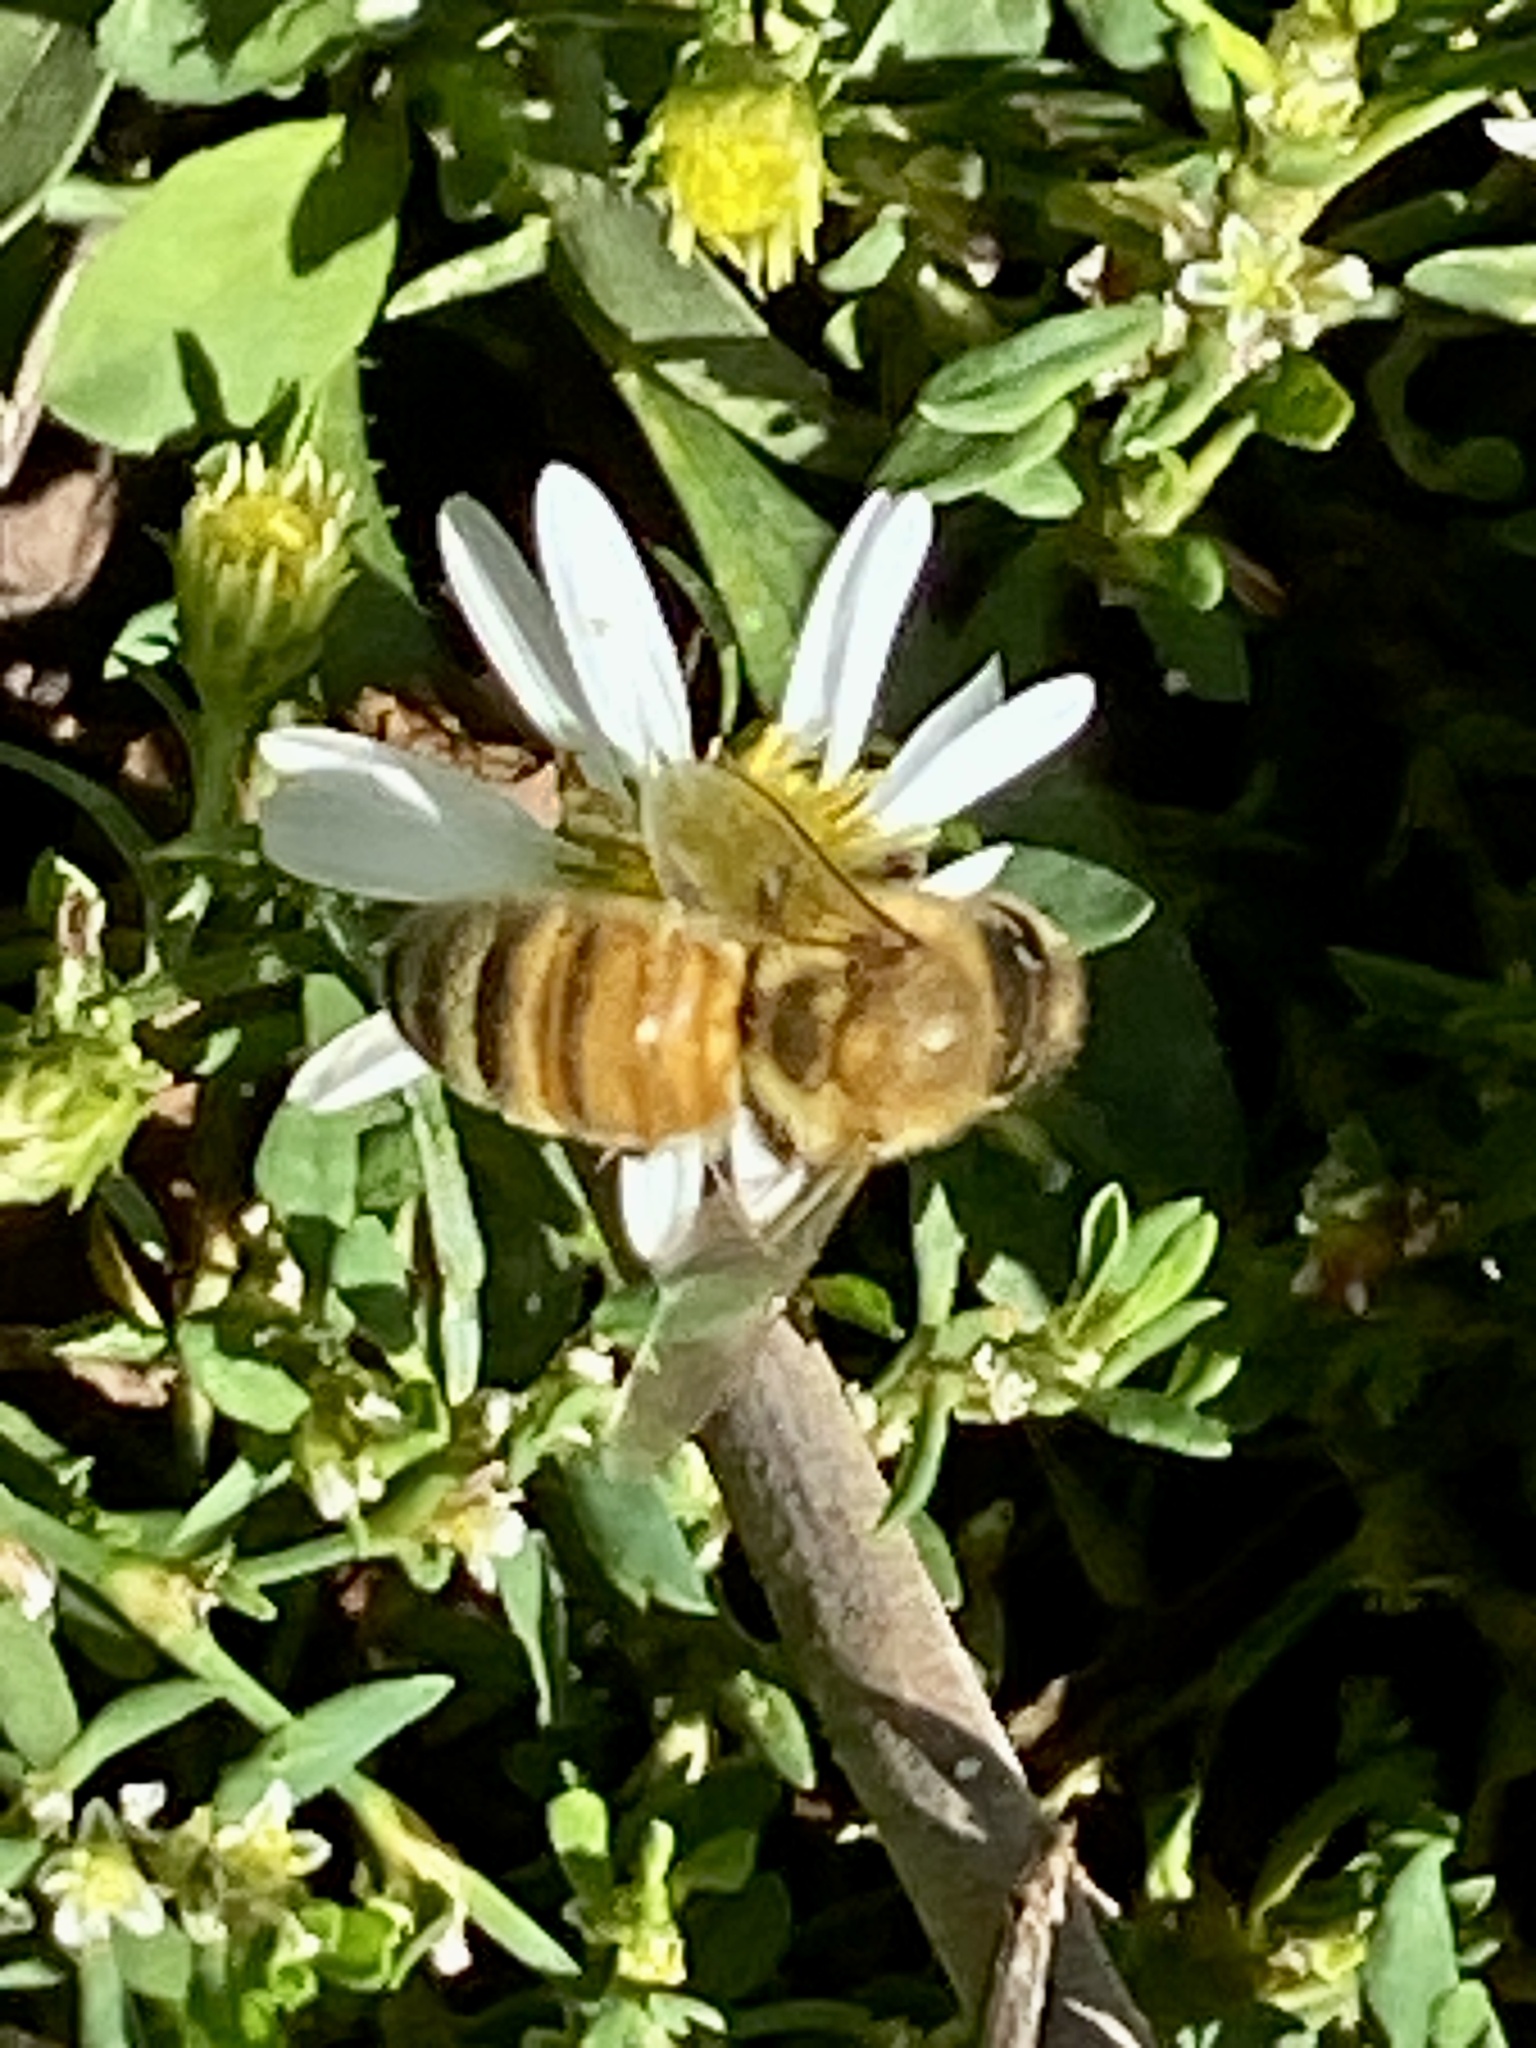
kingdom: Animalia
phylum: Arthropoda
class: Insecta
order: Hymenoptera
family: Apidae
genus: Apis
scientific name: Apis mellifera
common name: Honey bee
